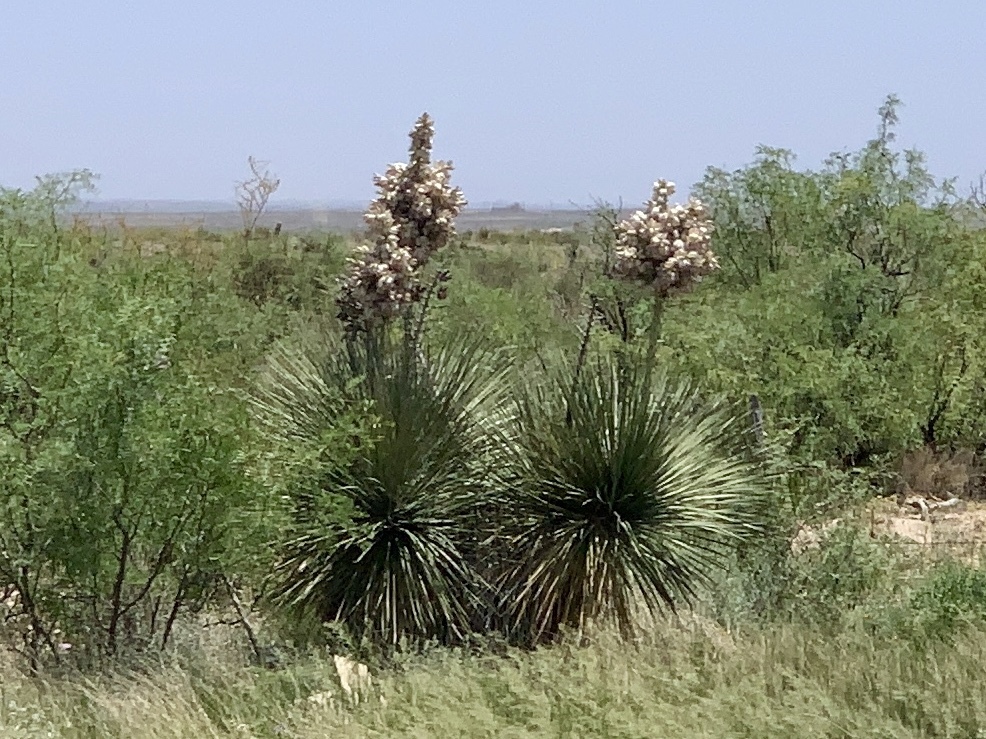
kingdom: Plantae
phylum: Tracheophyta
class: Liliopsida
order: Asparagales
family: Asparagaceae
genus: Yucca
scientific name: Yucca elata
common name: Palmella
